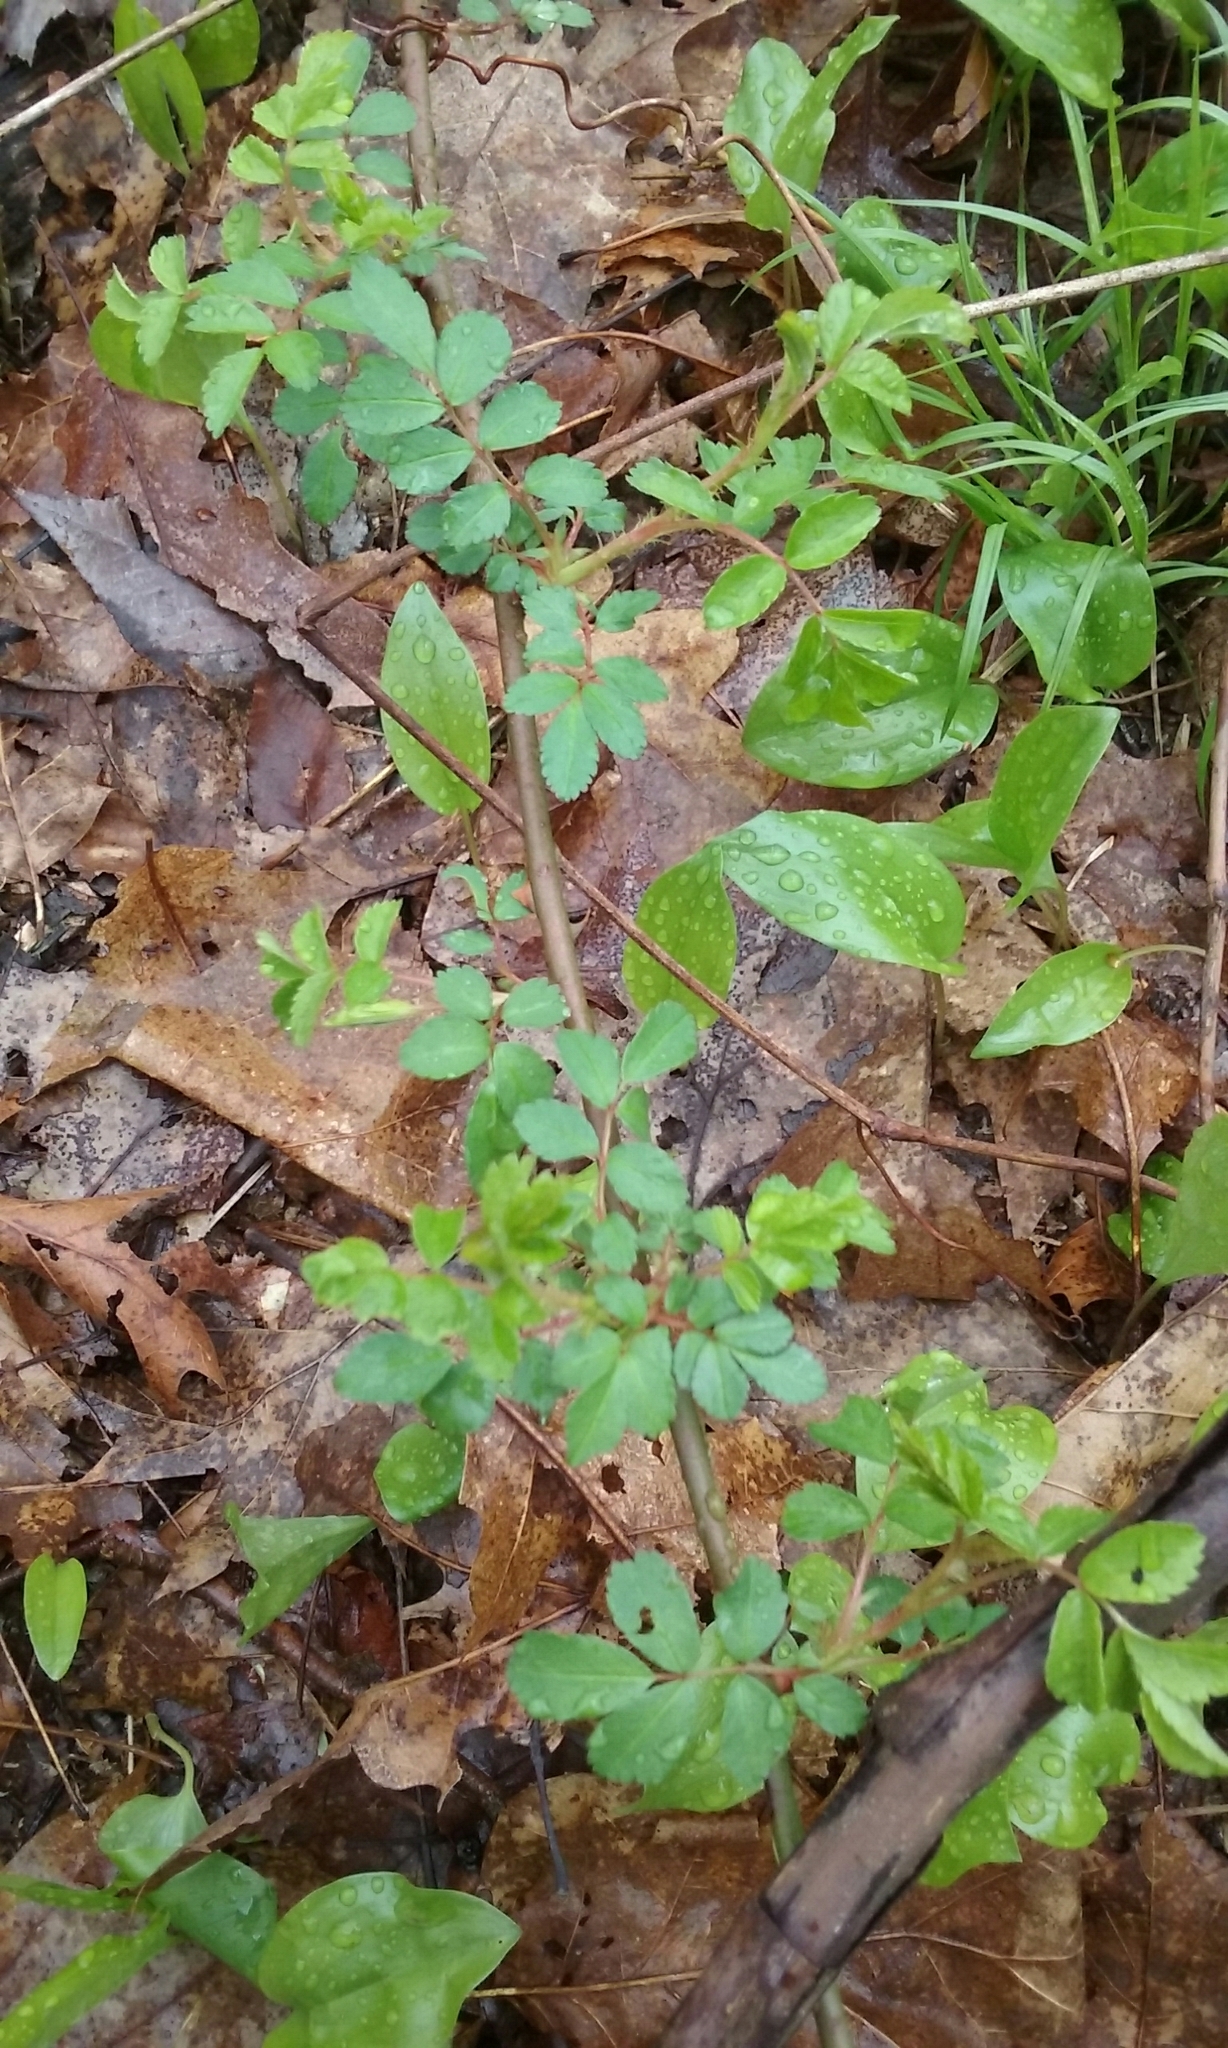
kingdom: Plantae
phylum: Tracheophyta
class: Magnoliopsida
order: Rosales
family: Rosaceae
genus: Rosa
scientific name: Rosa multiflora
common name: Multiflora rose
